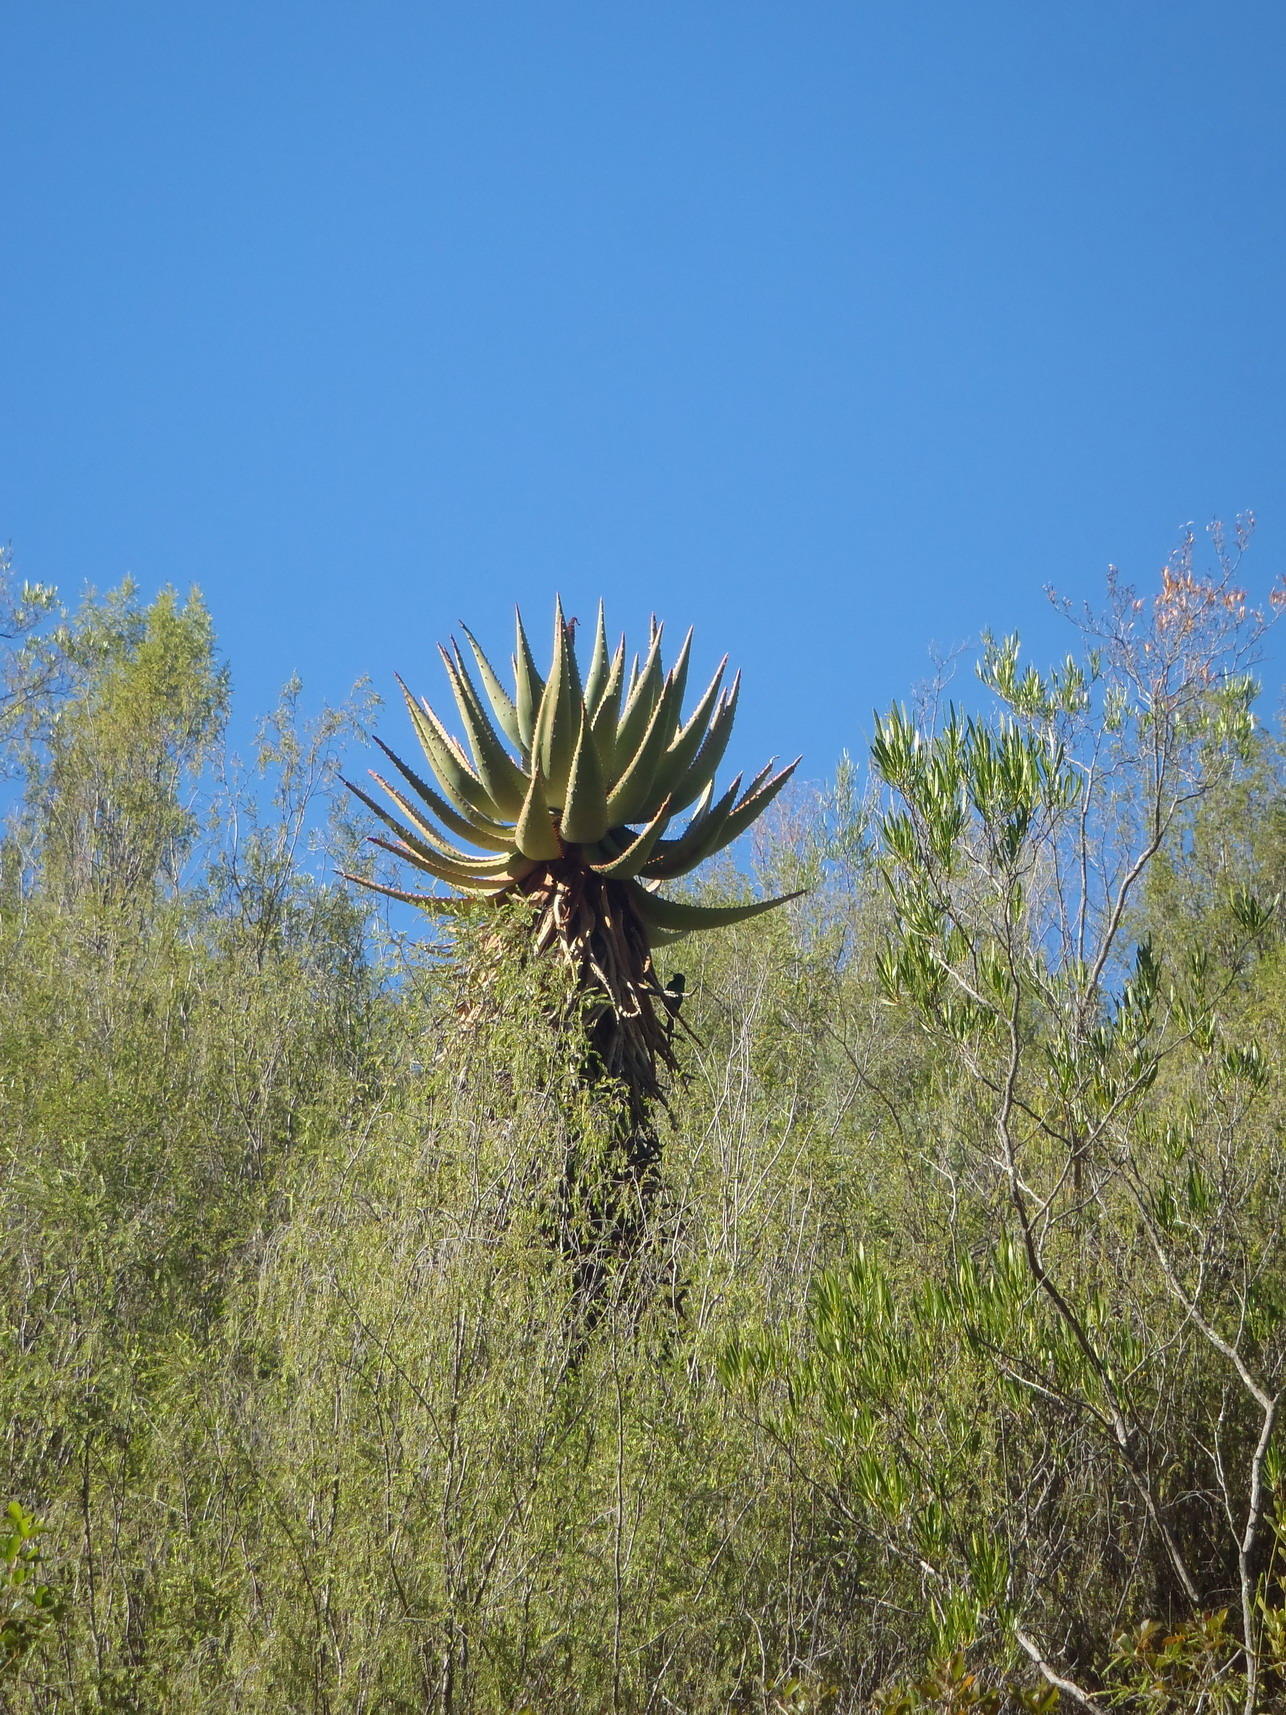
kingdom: Plantae
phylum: Tracheophyta
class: Liliopsida
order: Asparagales
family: Asphodelaceae
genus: Aloe
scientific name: Aloe ferox
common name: Bitter aloe
